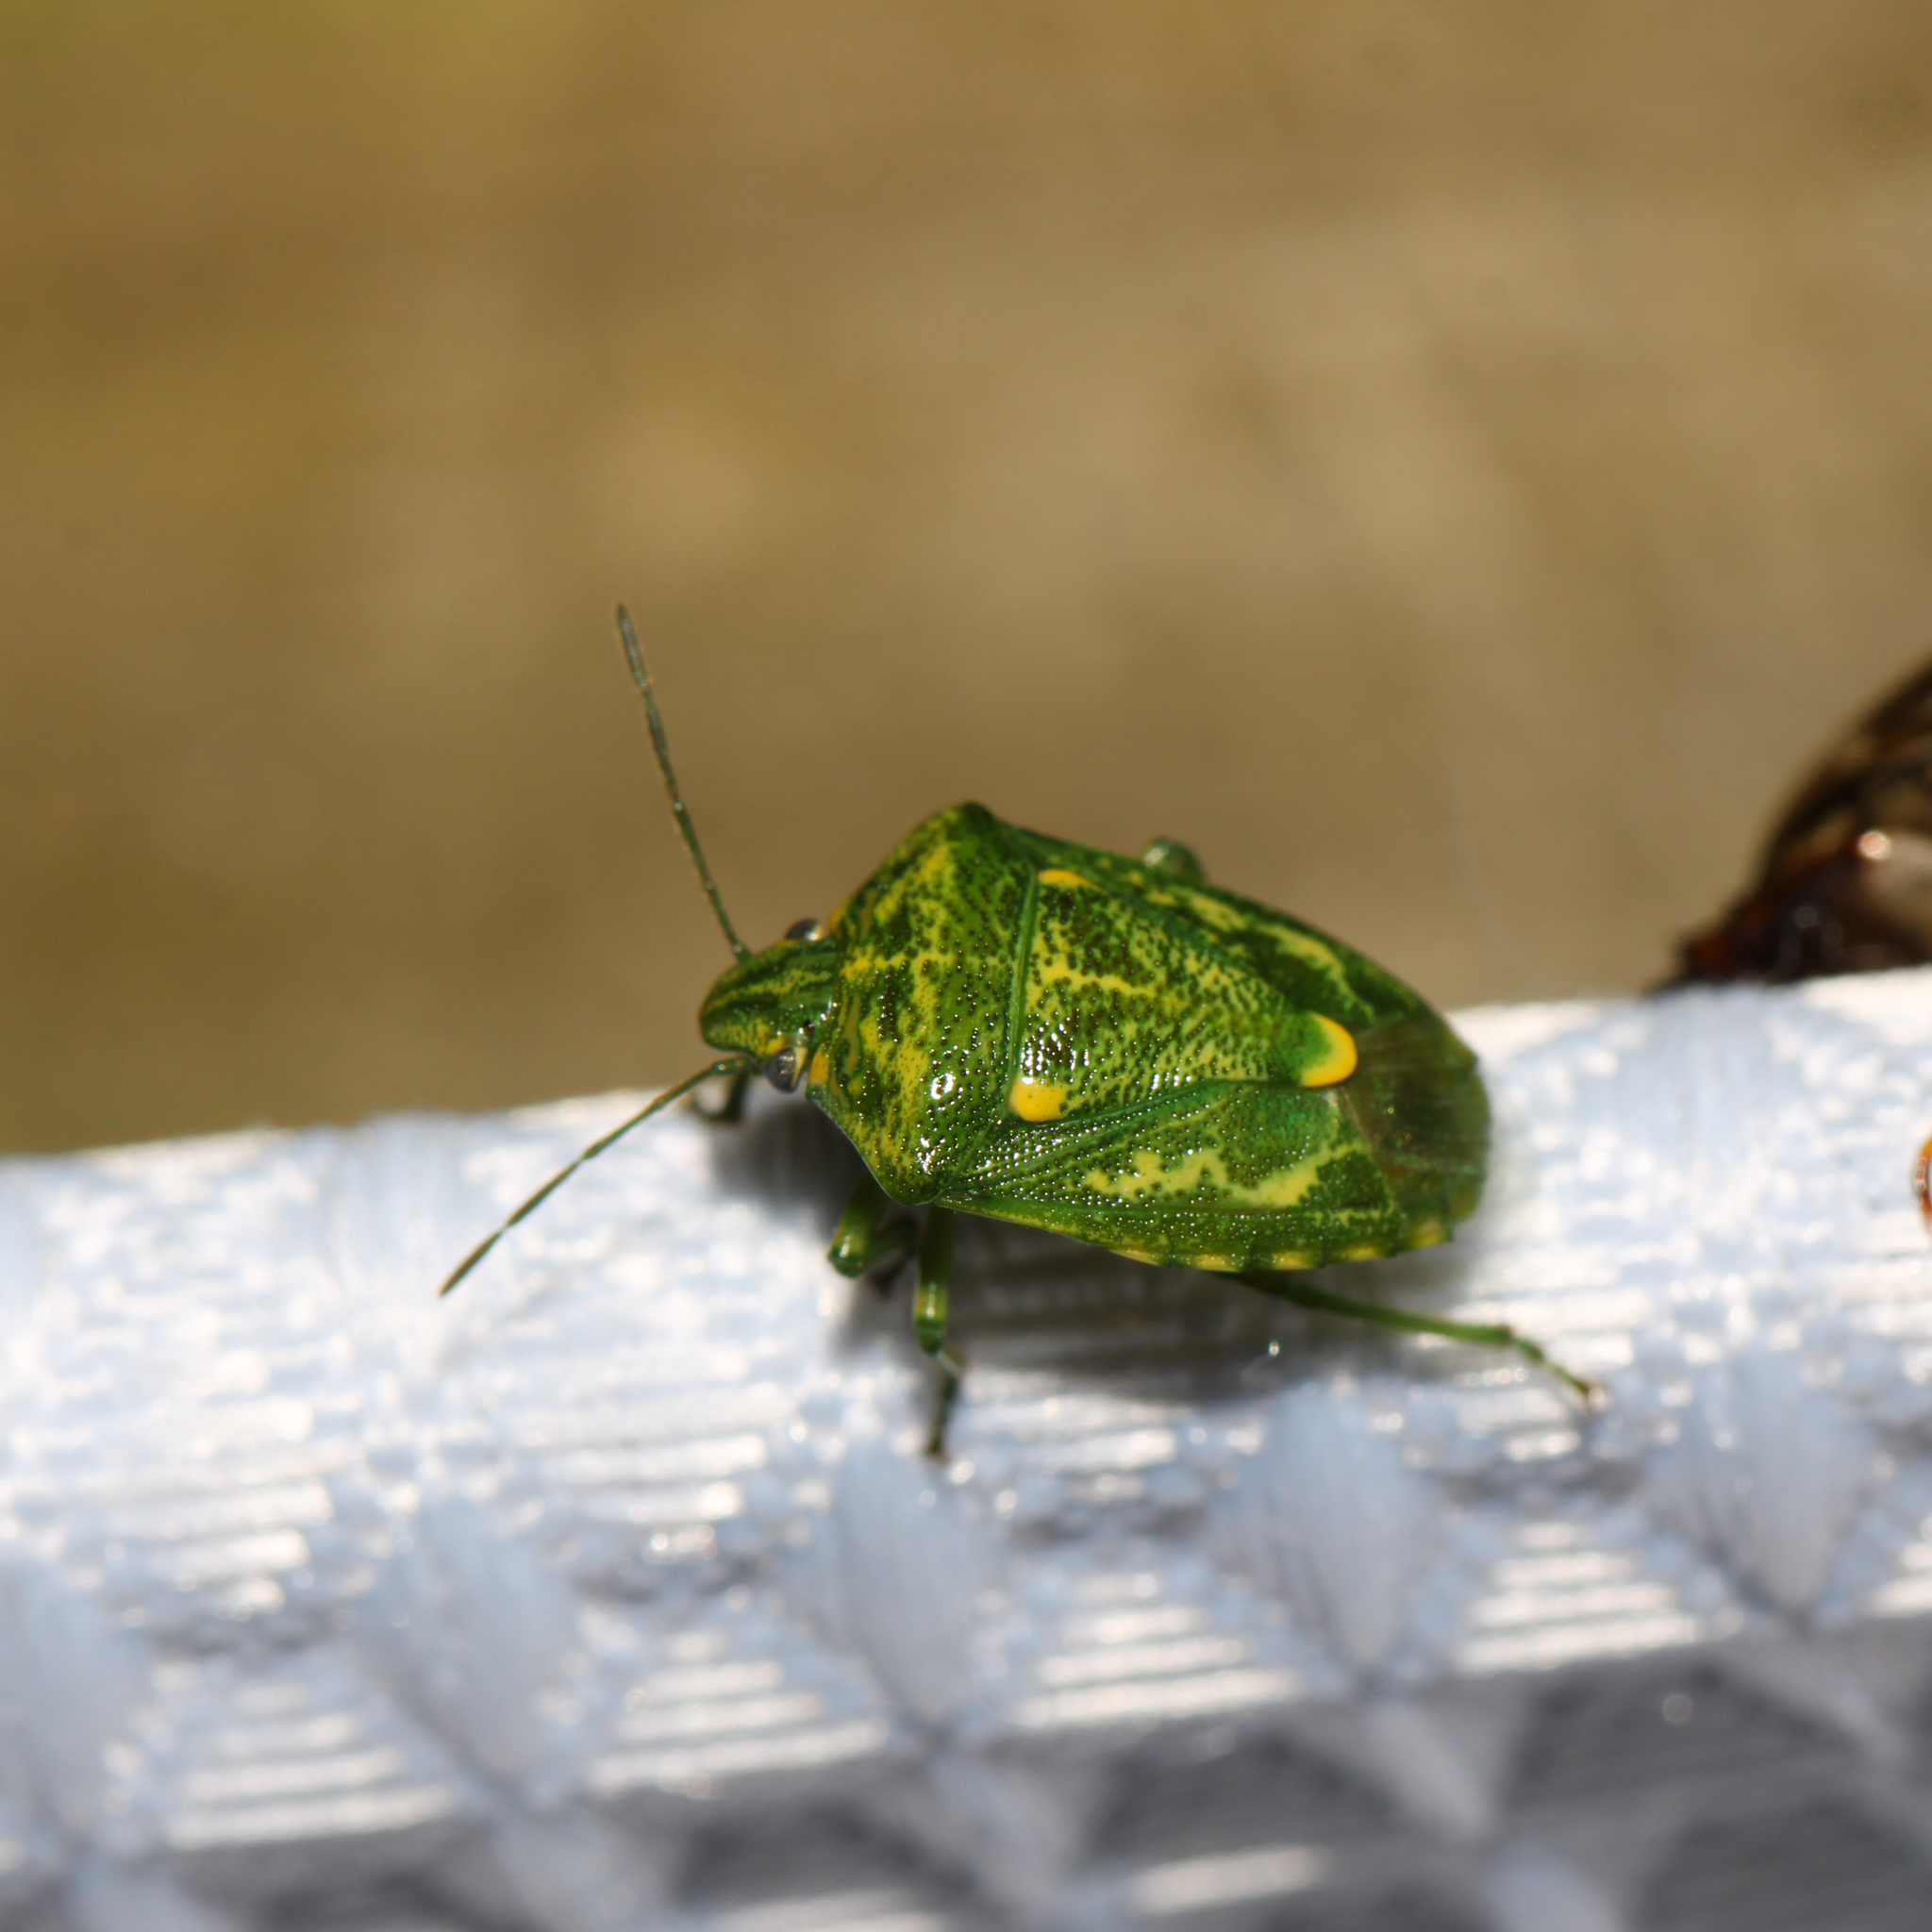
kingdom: Animalia
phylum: Arthropoda
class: Insecta
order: Hemiptera
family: Pentatomidae
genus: Banasa
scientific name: Banasa euchlora
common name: Cedar berry bug
